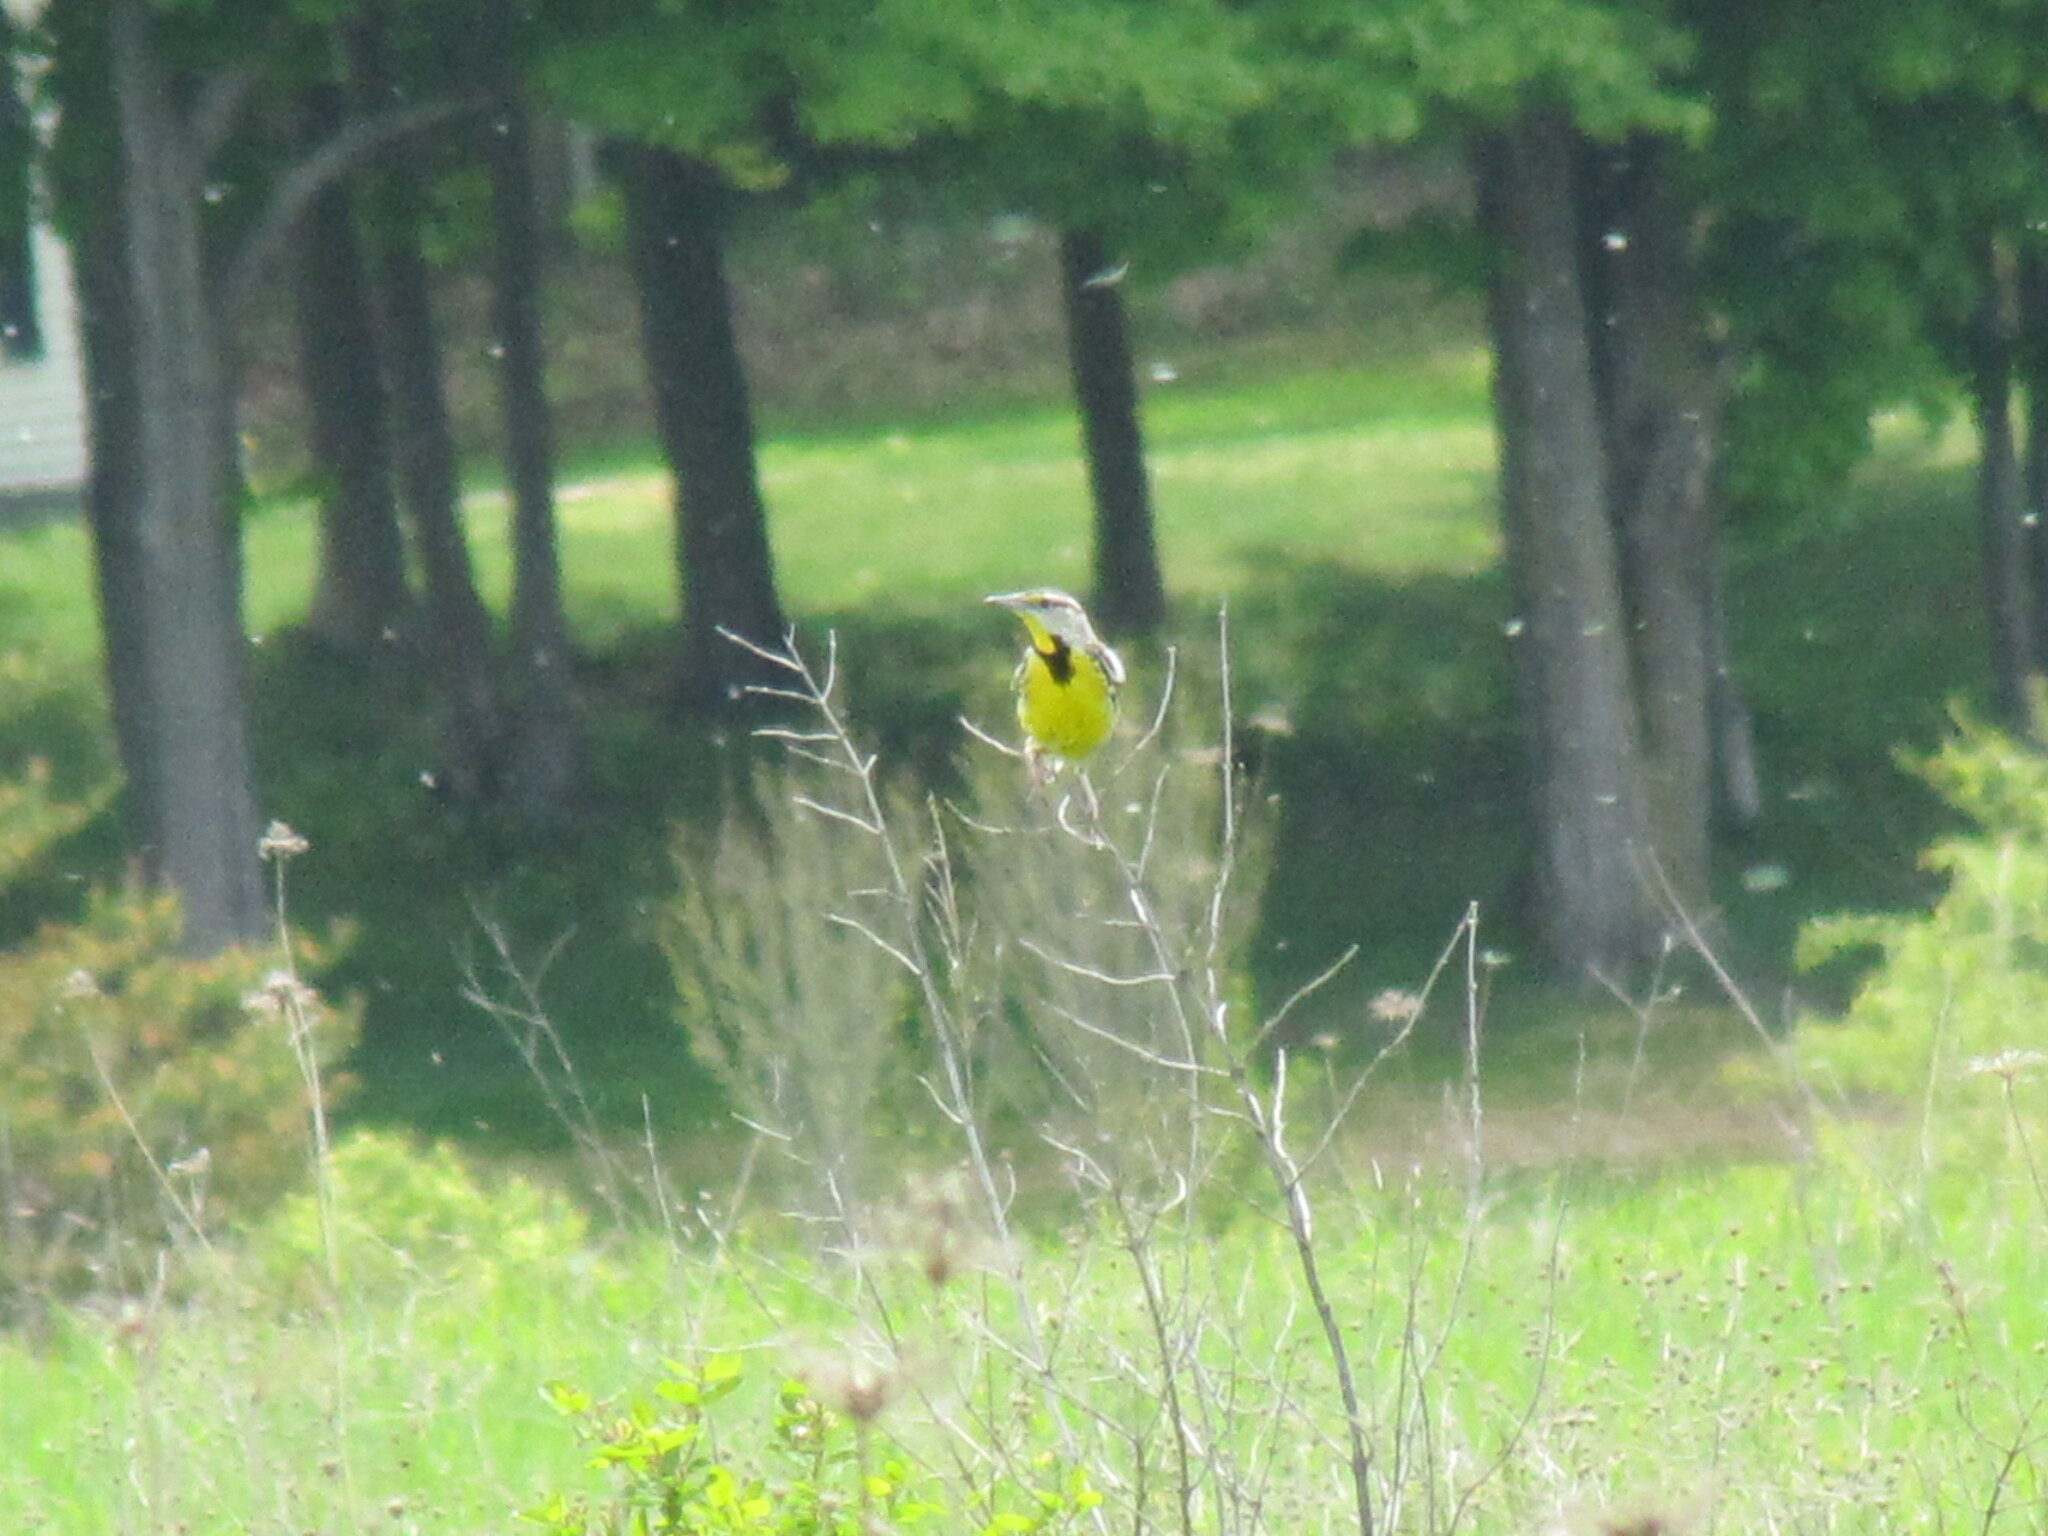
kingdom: Animalia
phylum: Chordata
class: Aves
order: Passeriformes
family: Icteridae
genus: Sturnella
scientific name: Sturnella magna
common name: Eastern meadowlark
